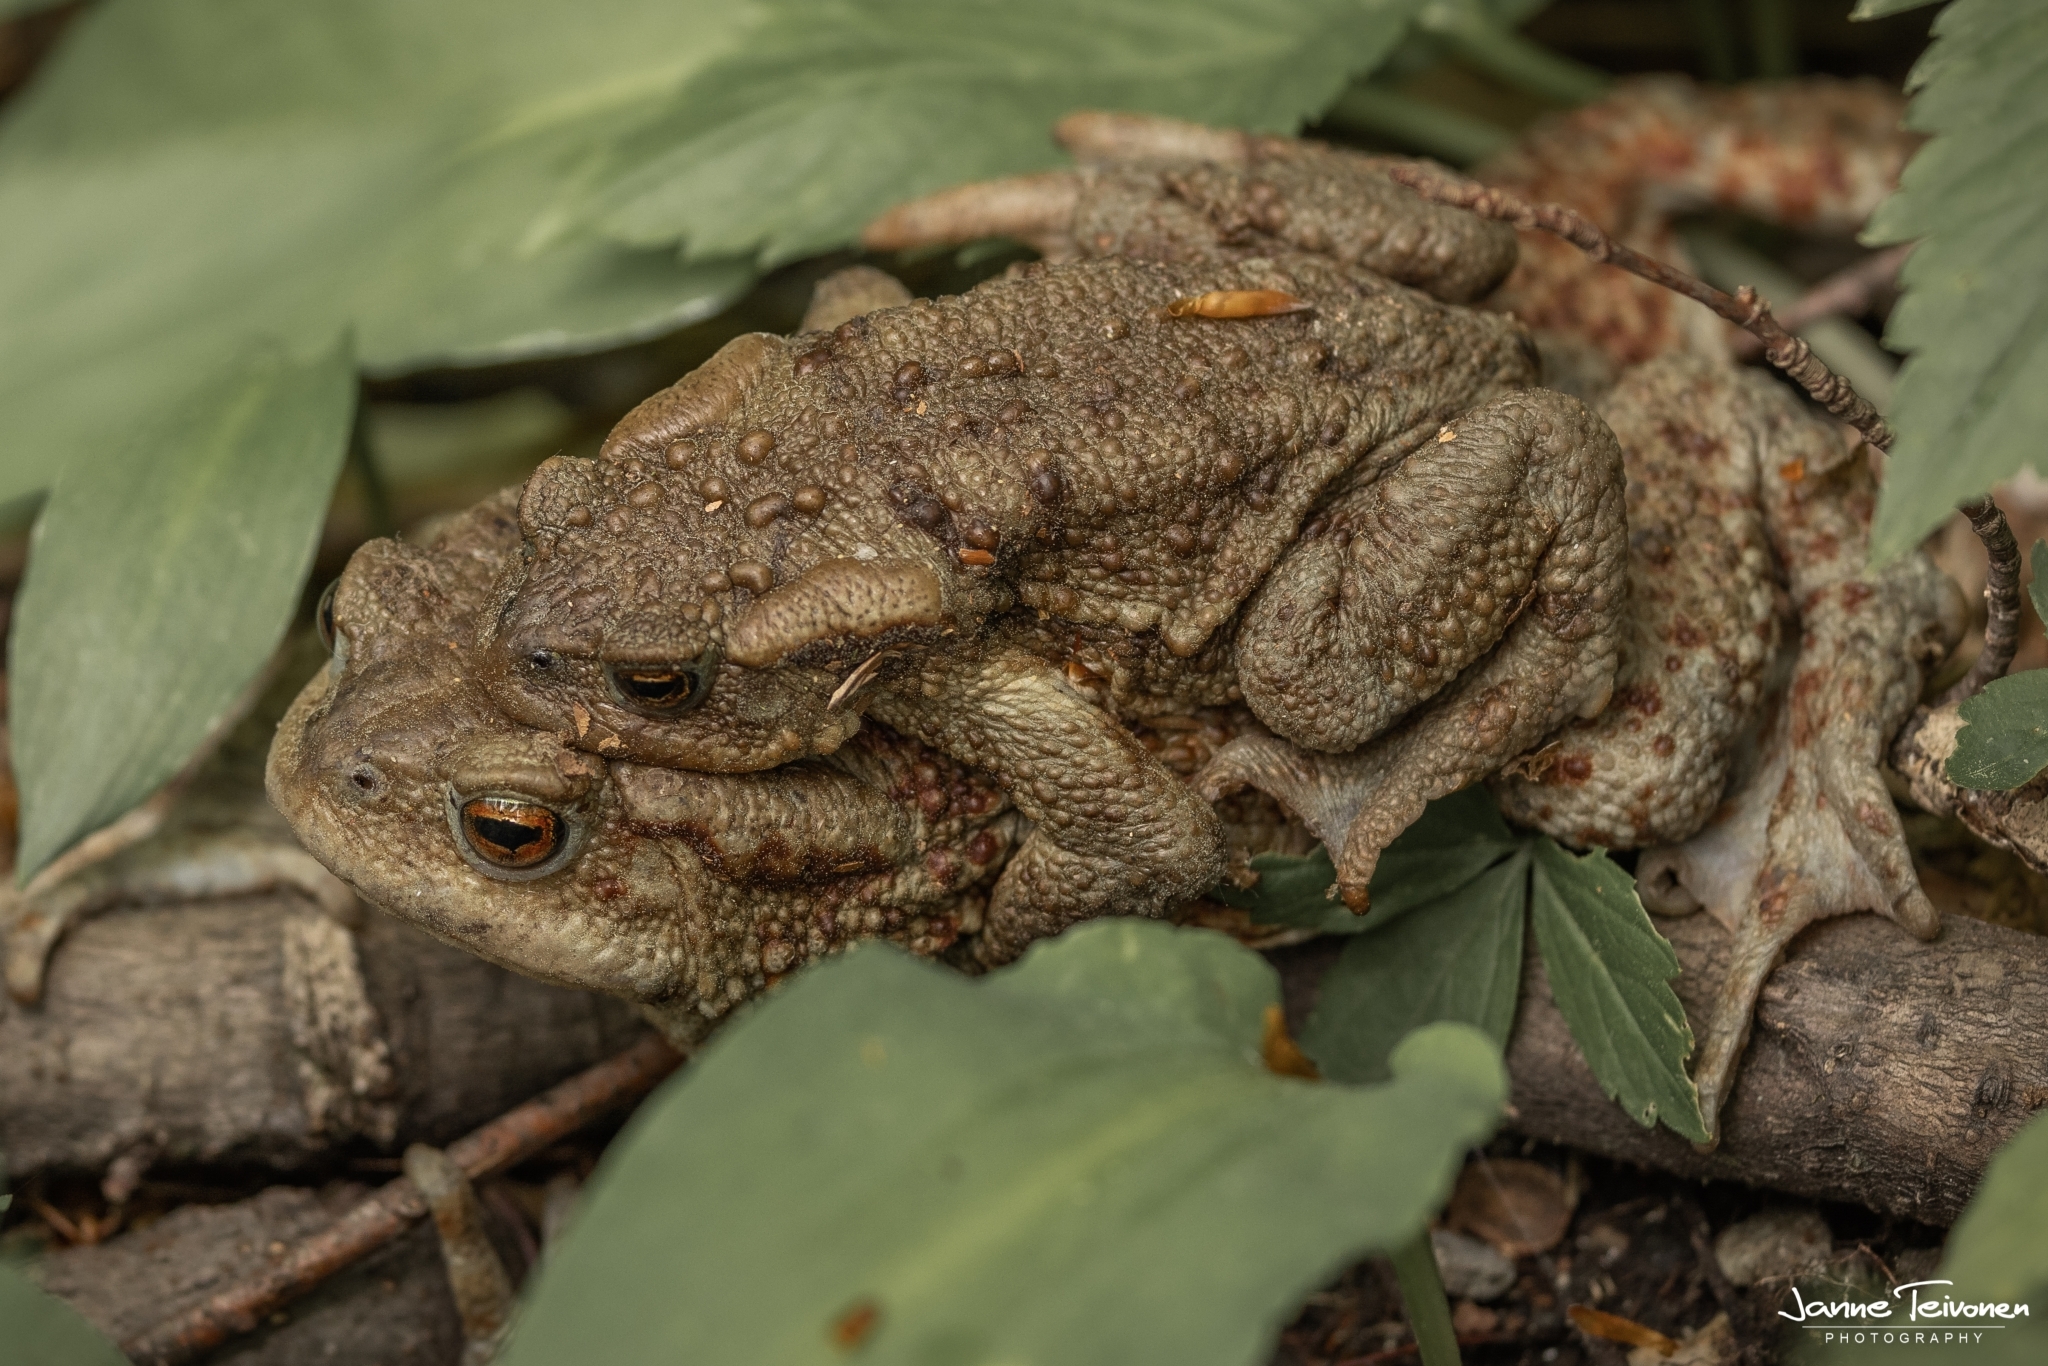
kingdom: Animalia
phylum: Chordata
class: Amphibia
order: Anura
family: Bufonidae
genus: Bufo
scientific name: Bufo bufo
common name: Common toad
